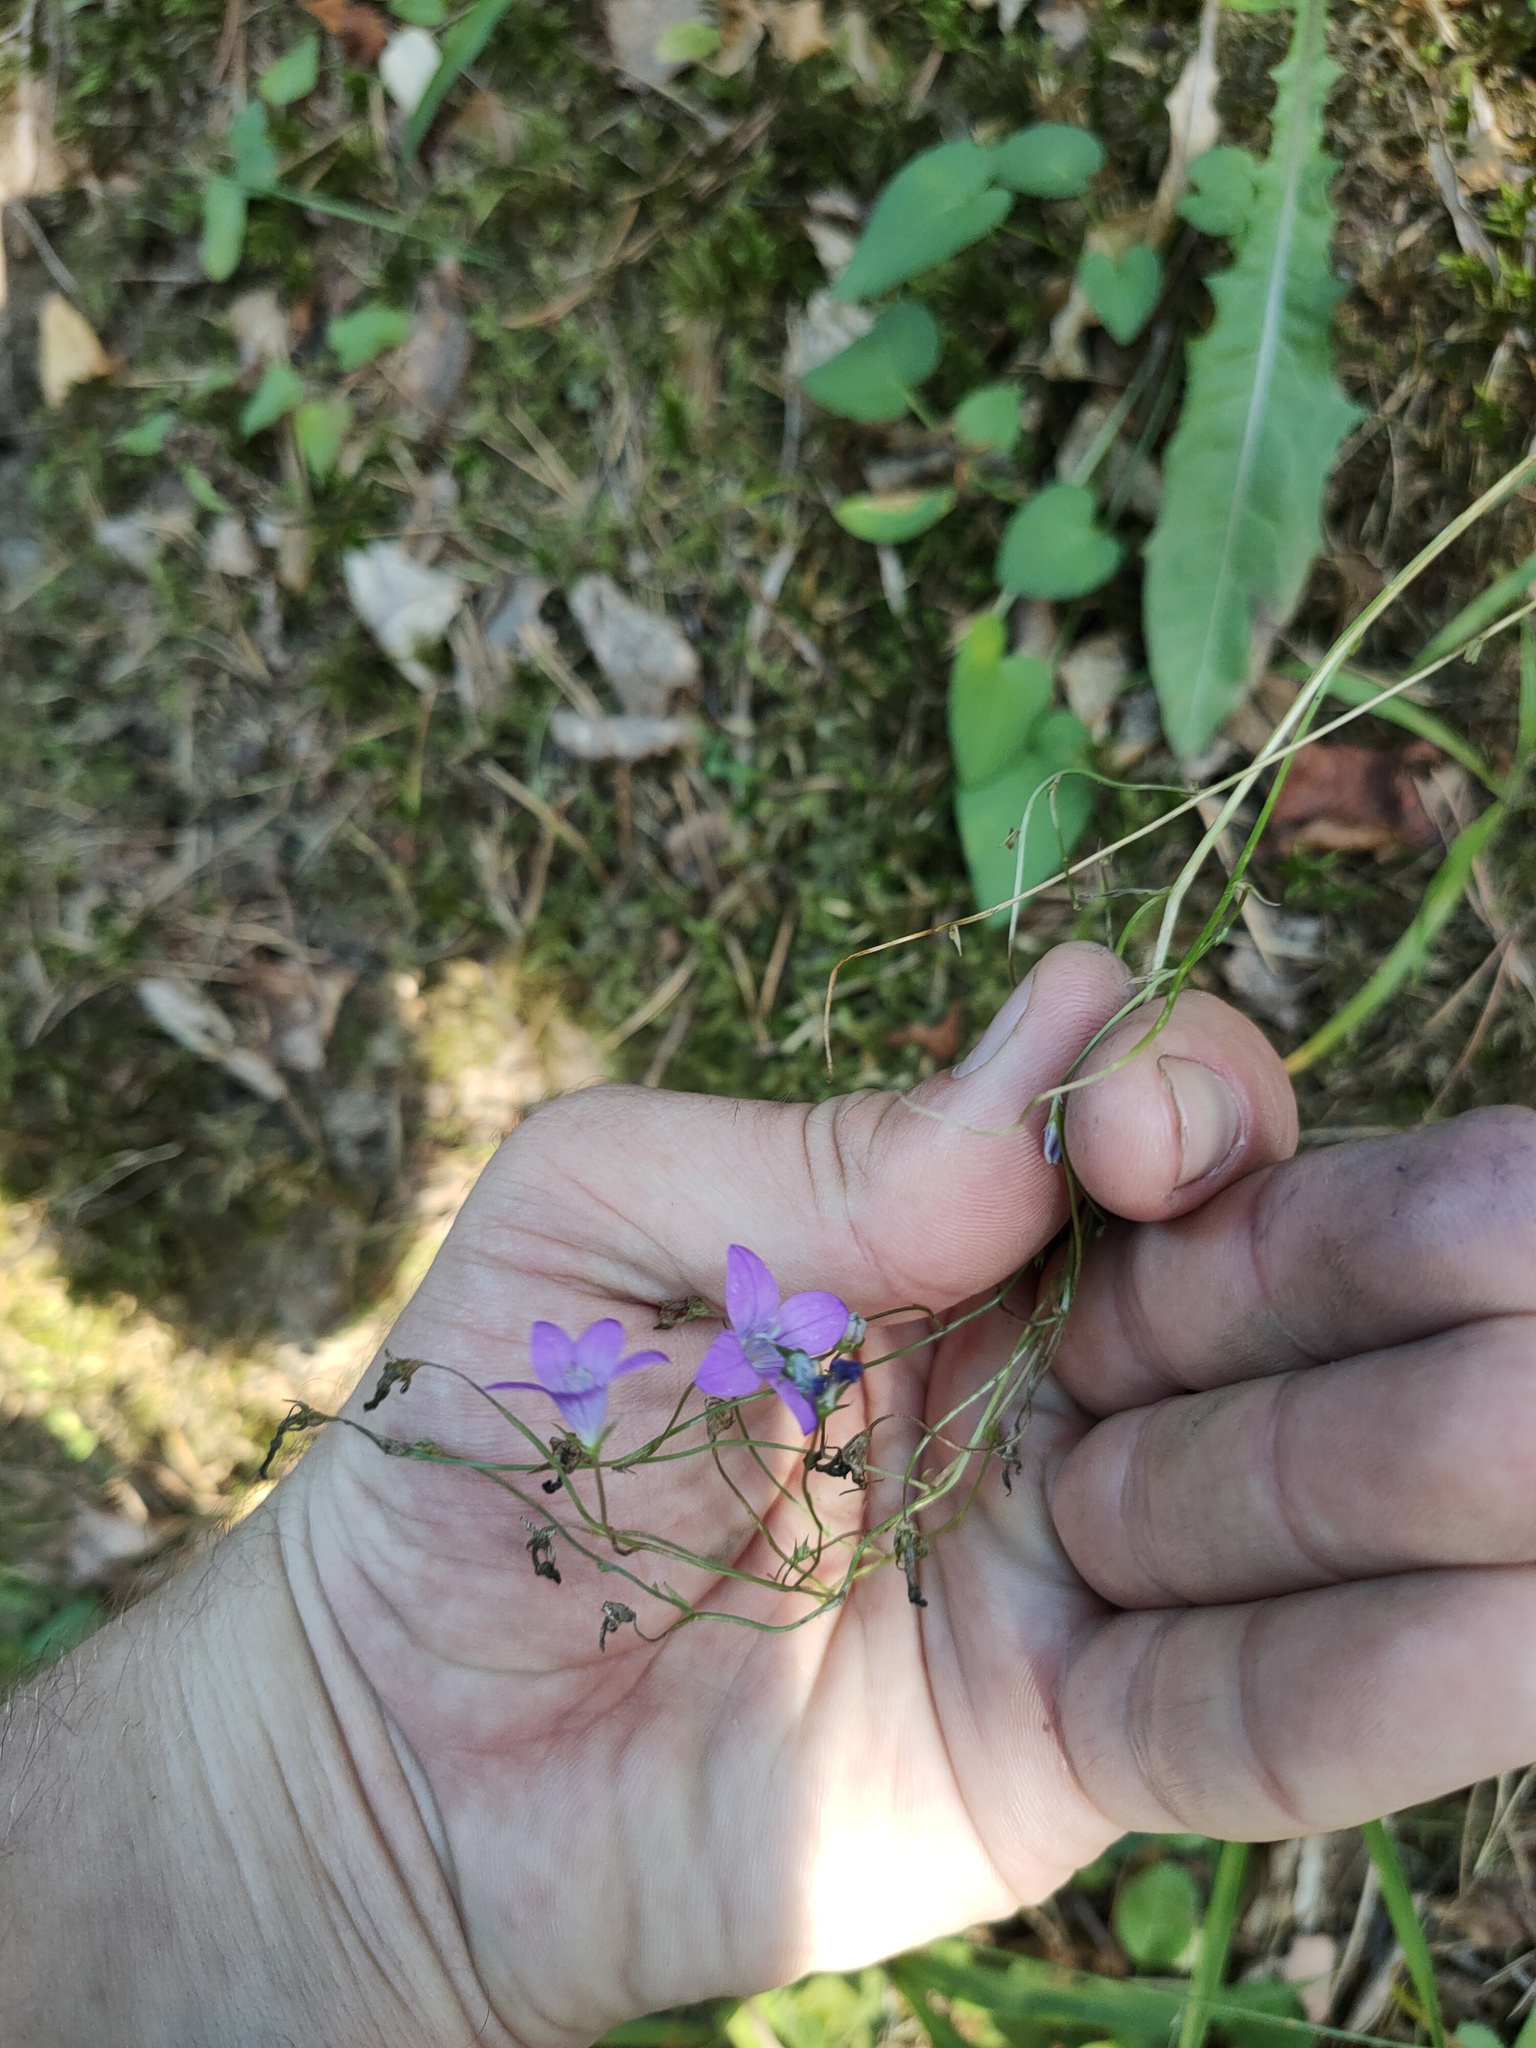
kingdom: Plantae
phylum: Tracheophyta
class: Magnoliopsida
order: Asterales
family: Campanulaceae
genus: Campanula
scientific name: Campanula patula
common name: Spreading bellflower
